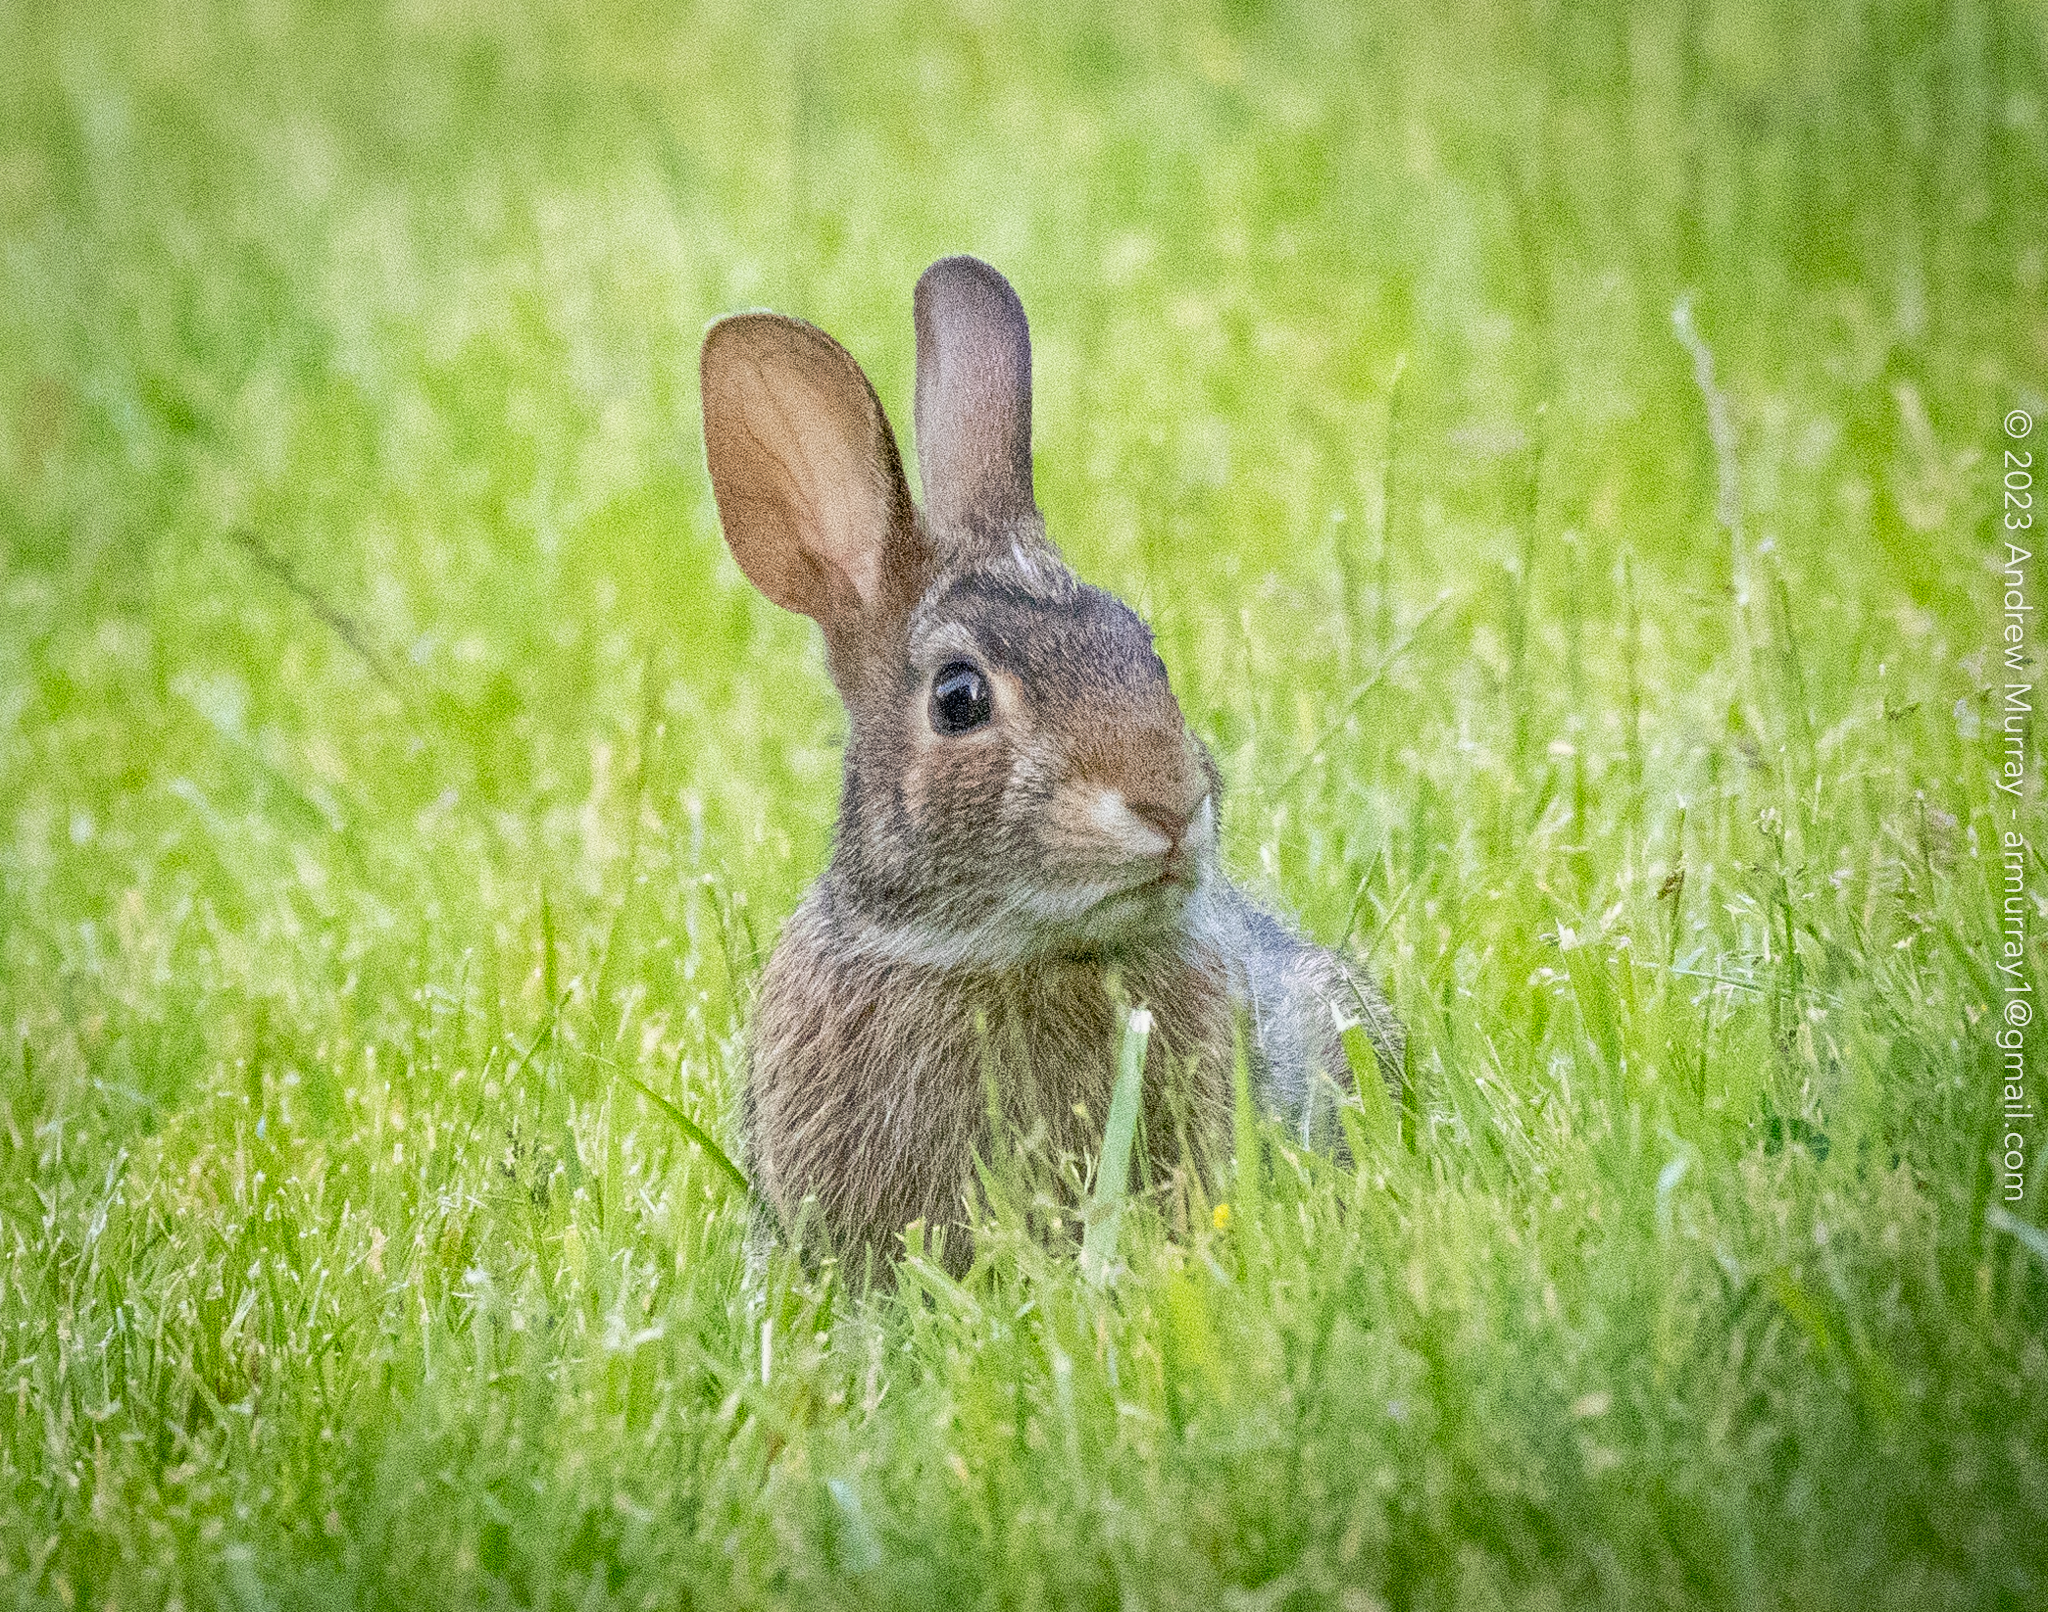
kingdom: Animalia
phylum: Chordata
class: Mammalia
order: Lagomorpha
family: Leporidae
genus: Sylvilagus
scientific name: Sylvilagus floridanus
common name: Eastern cottontail
